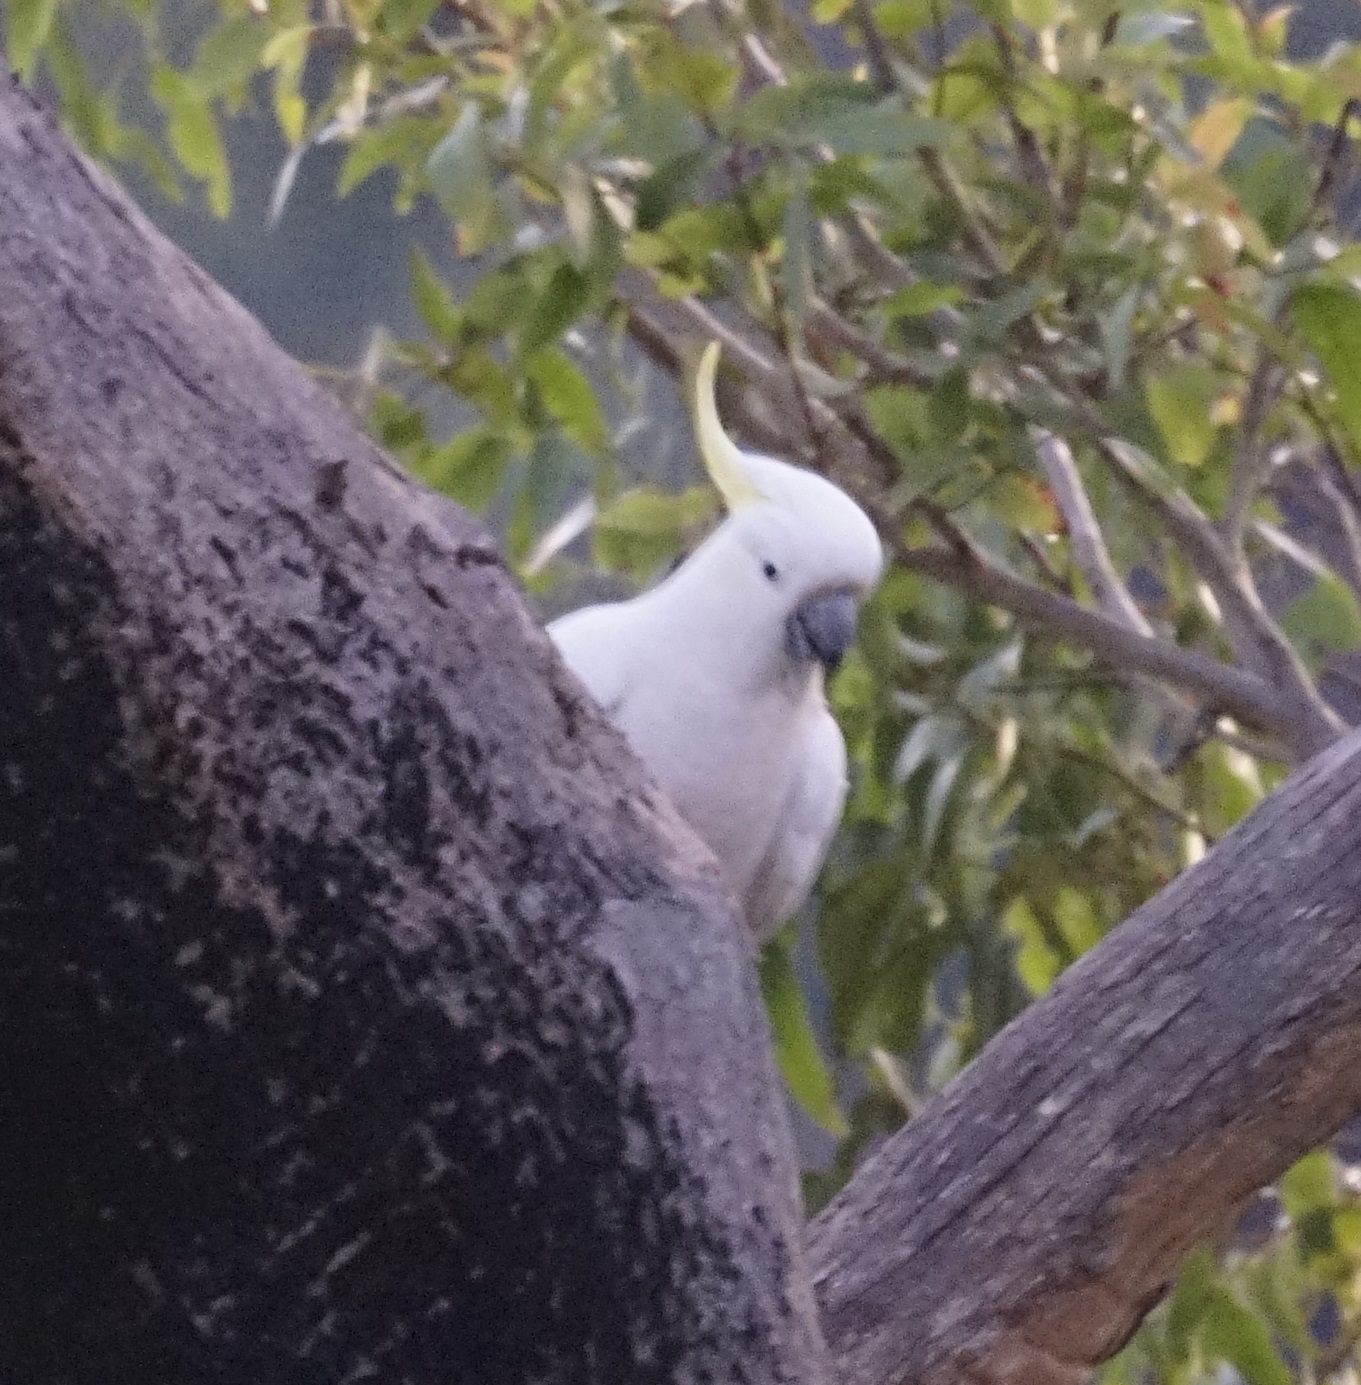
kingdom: Animalia
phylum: Chordata
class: Aves
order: Psittaciformes
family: Psittacidae
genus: Cacatua
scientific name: Cacatua galerita
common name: Sulphur-crested cockatoo
